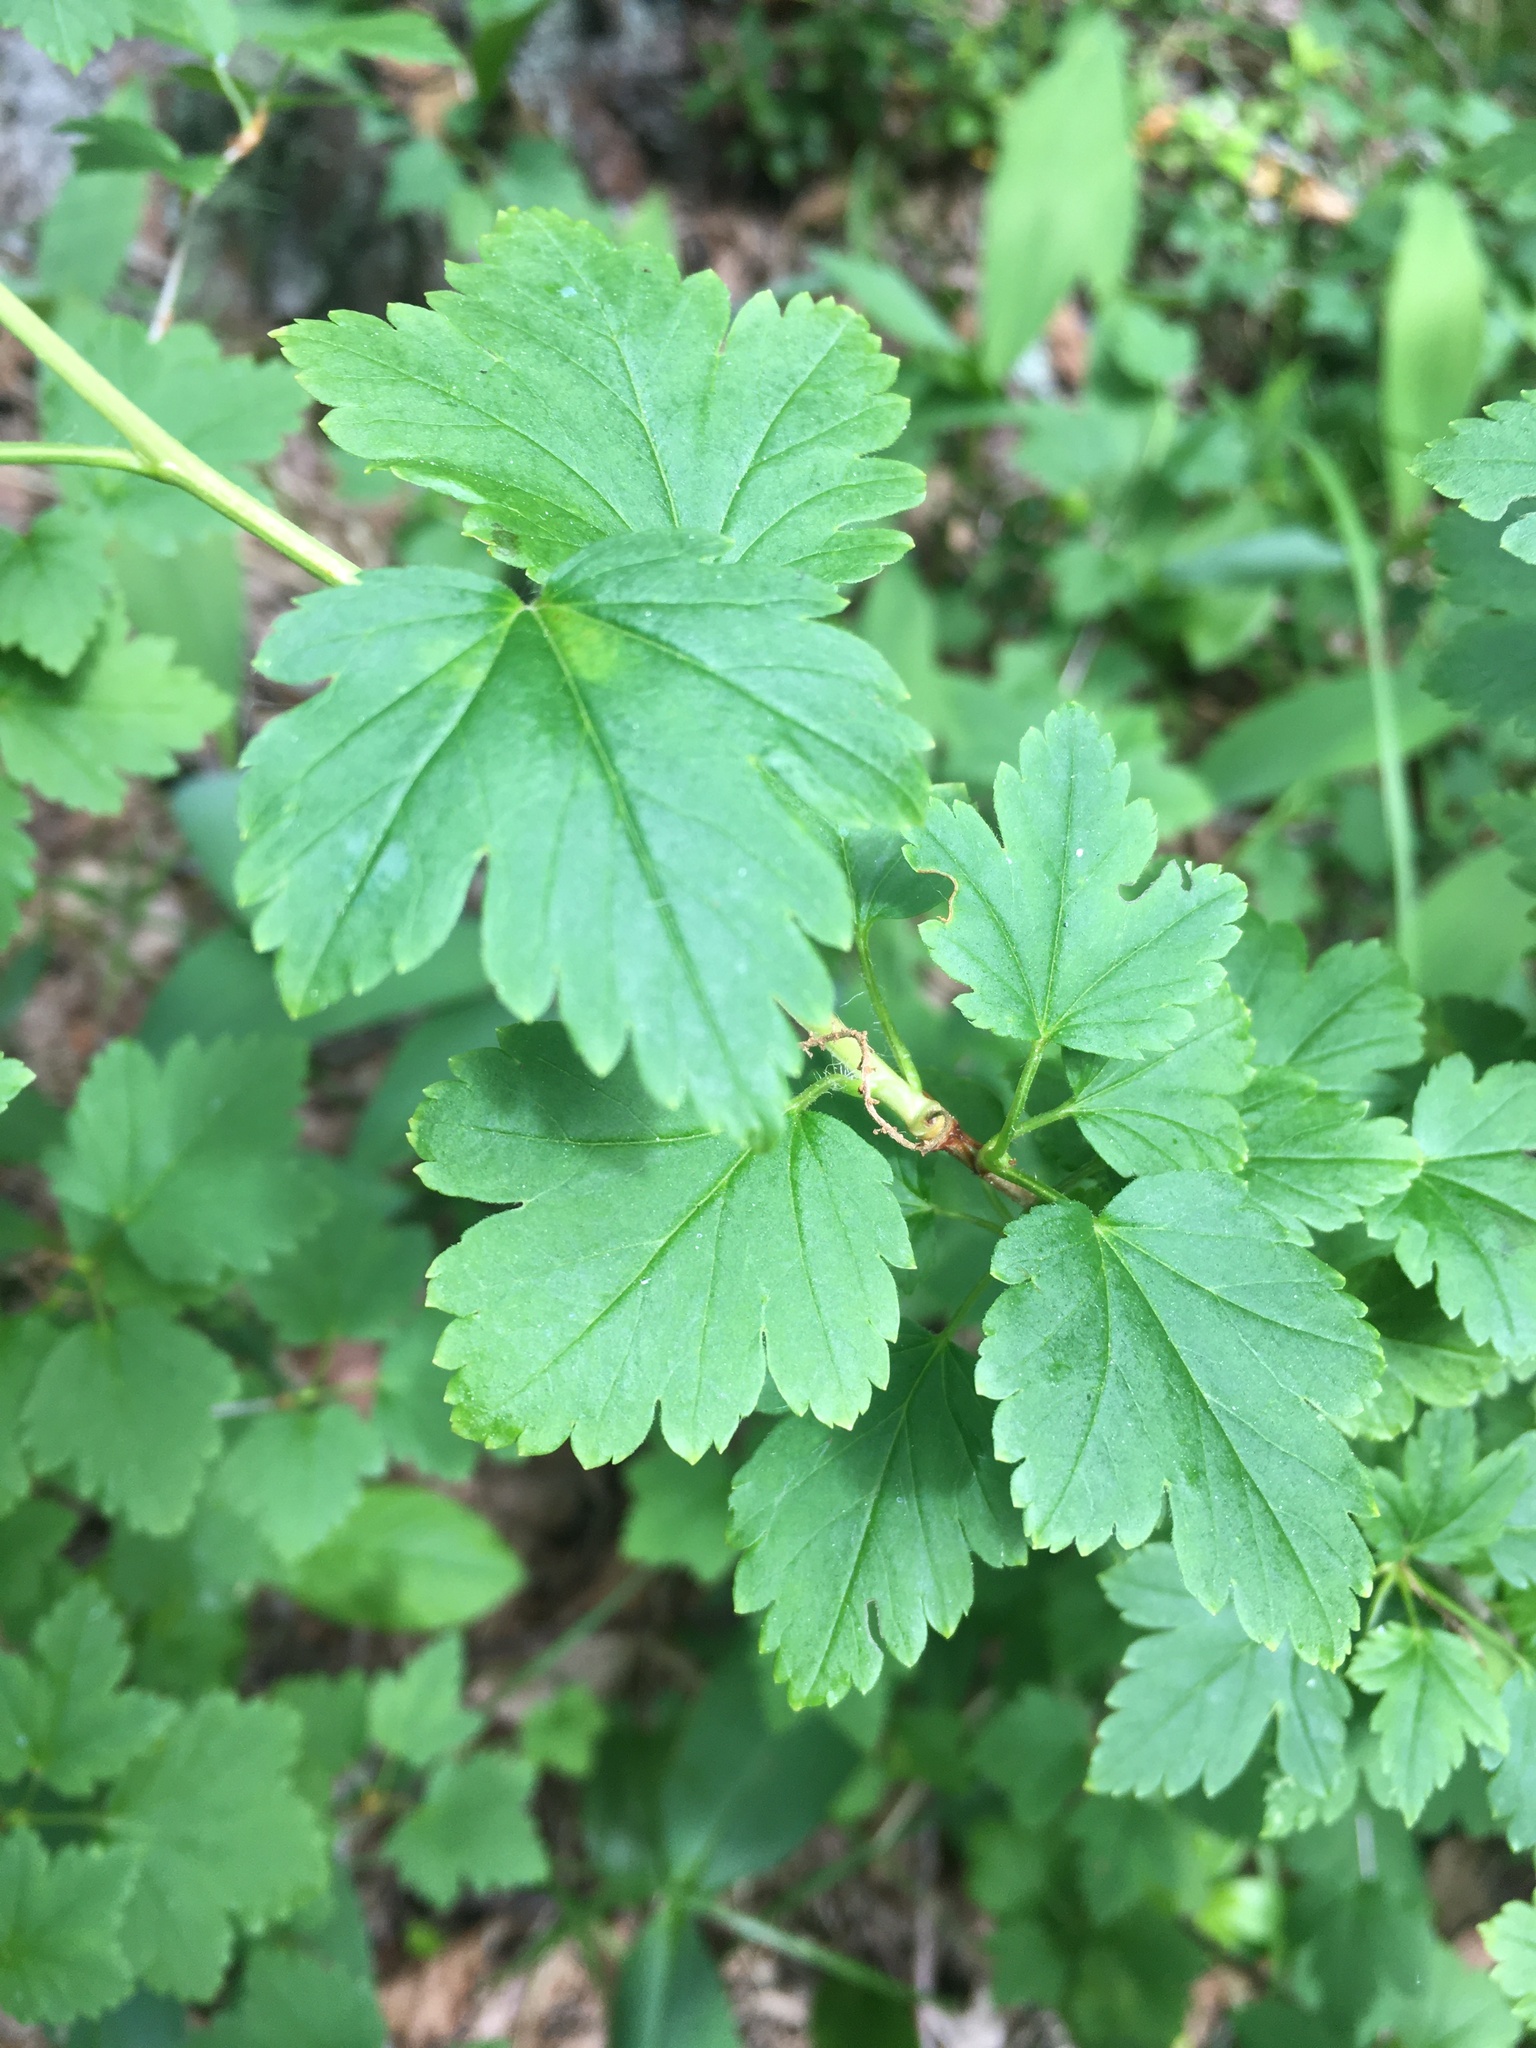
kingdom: Plantae
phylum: Tracheophyta
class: Magnoliopsida
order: Saxifragales
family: Grossulariaceae
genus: Ribes
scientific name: Ribes alpinum
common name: Alpine currant
